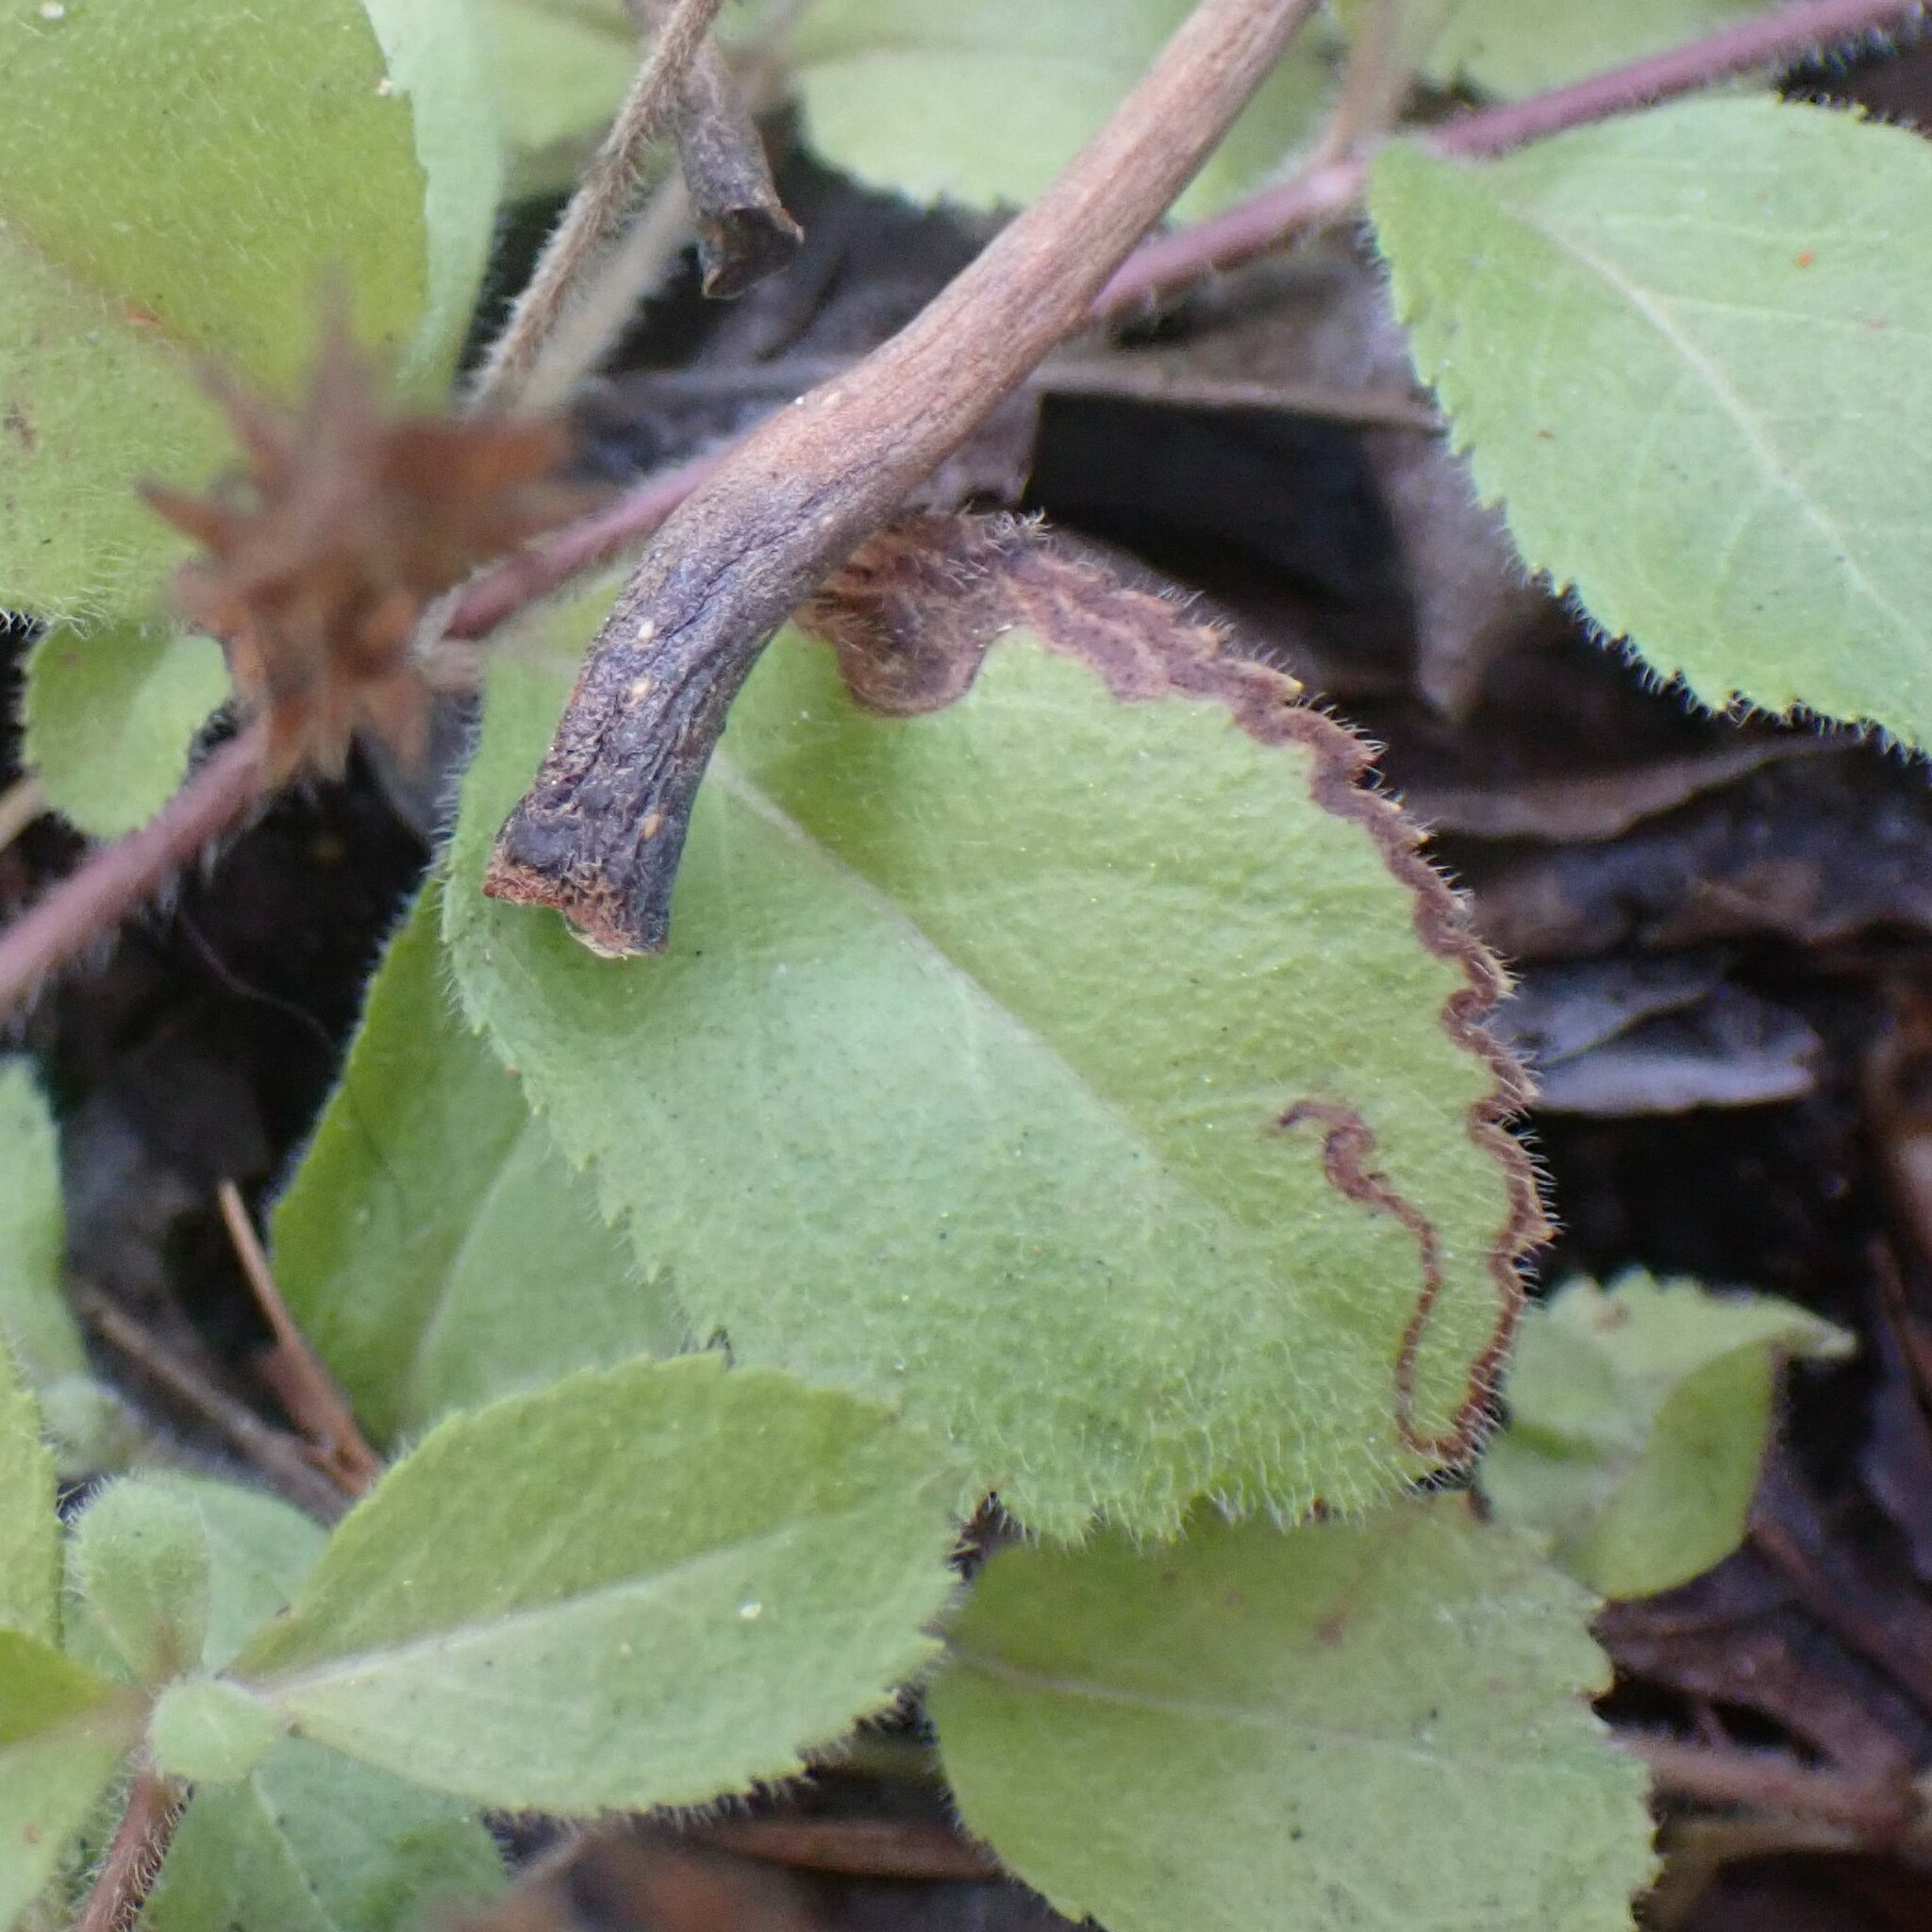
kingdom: Animalia
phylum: Arthropoda
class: Insecta
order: Diptera
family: Agromyzidae
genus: Phytomyza
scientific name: Phytomyza crassiseta
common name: Leaf-miner fly
